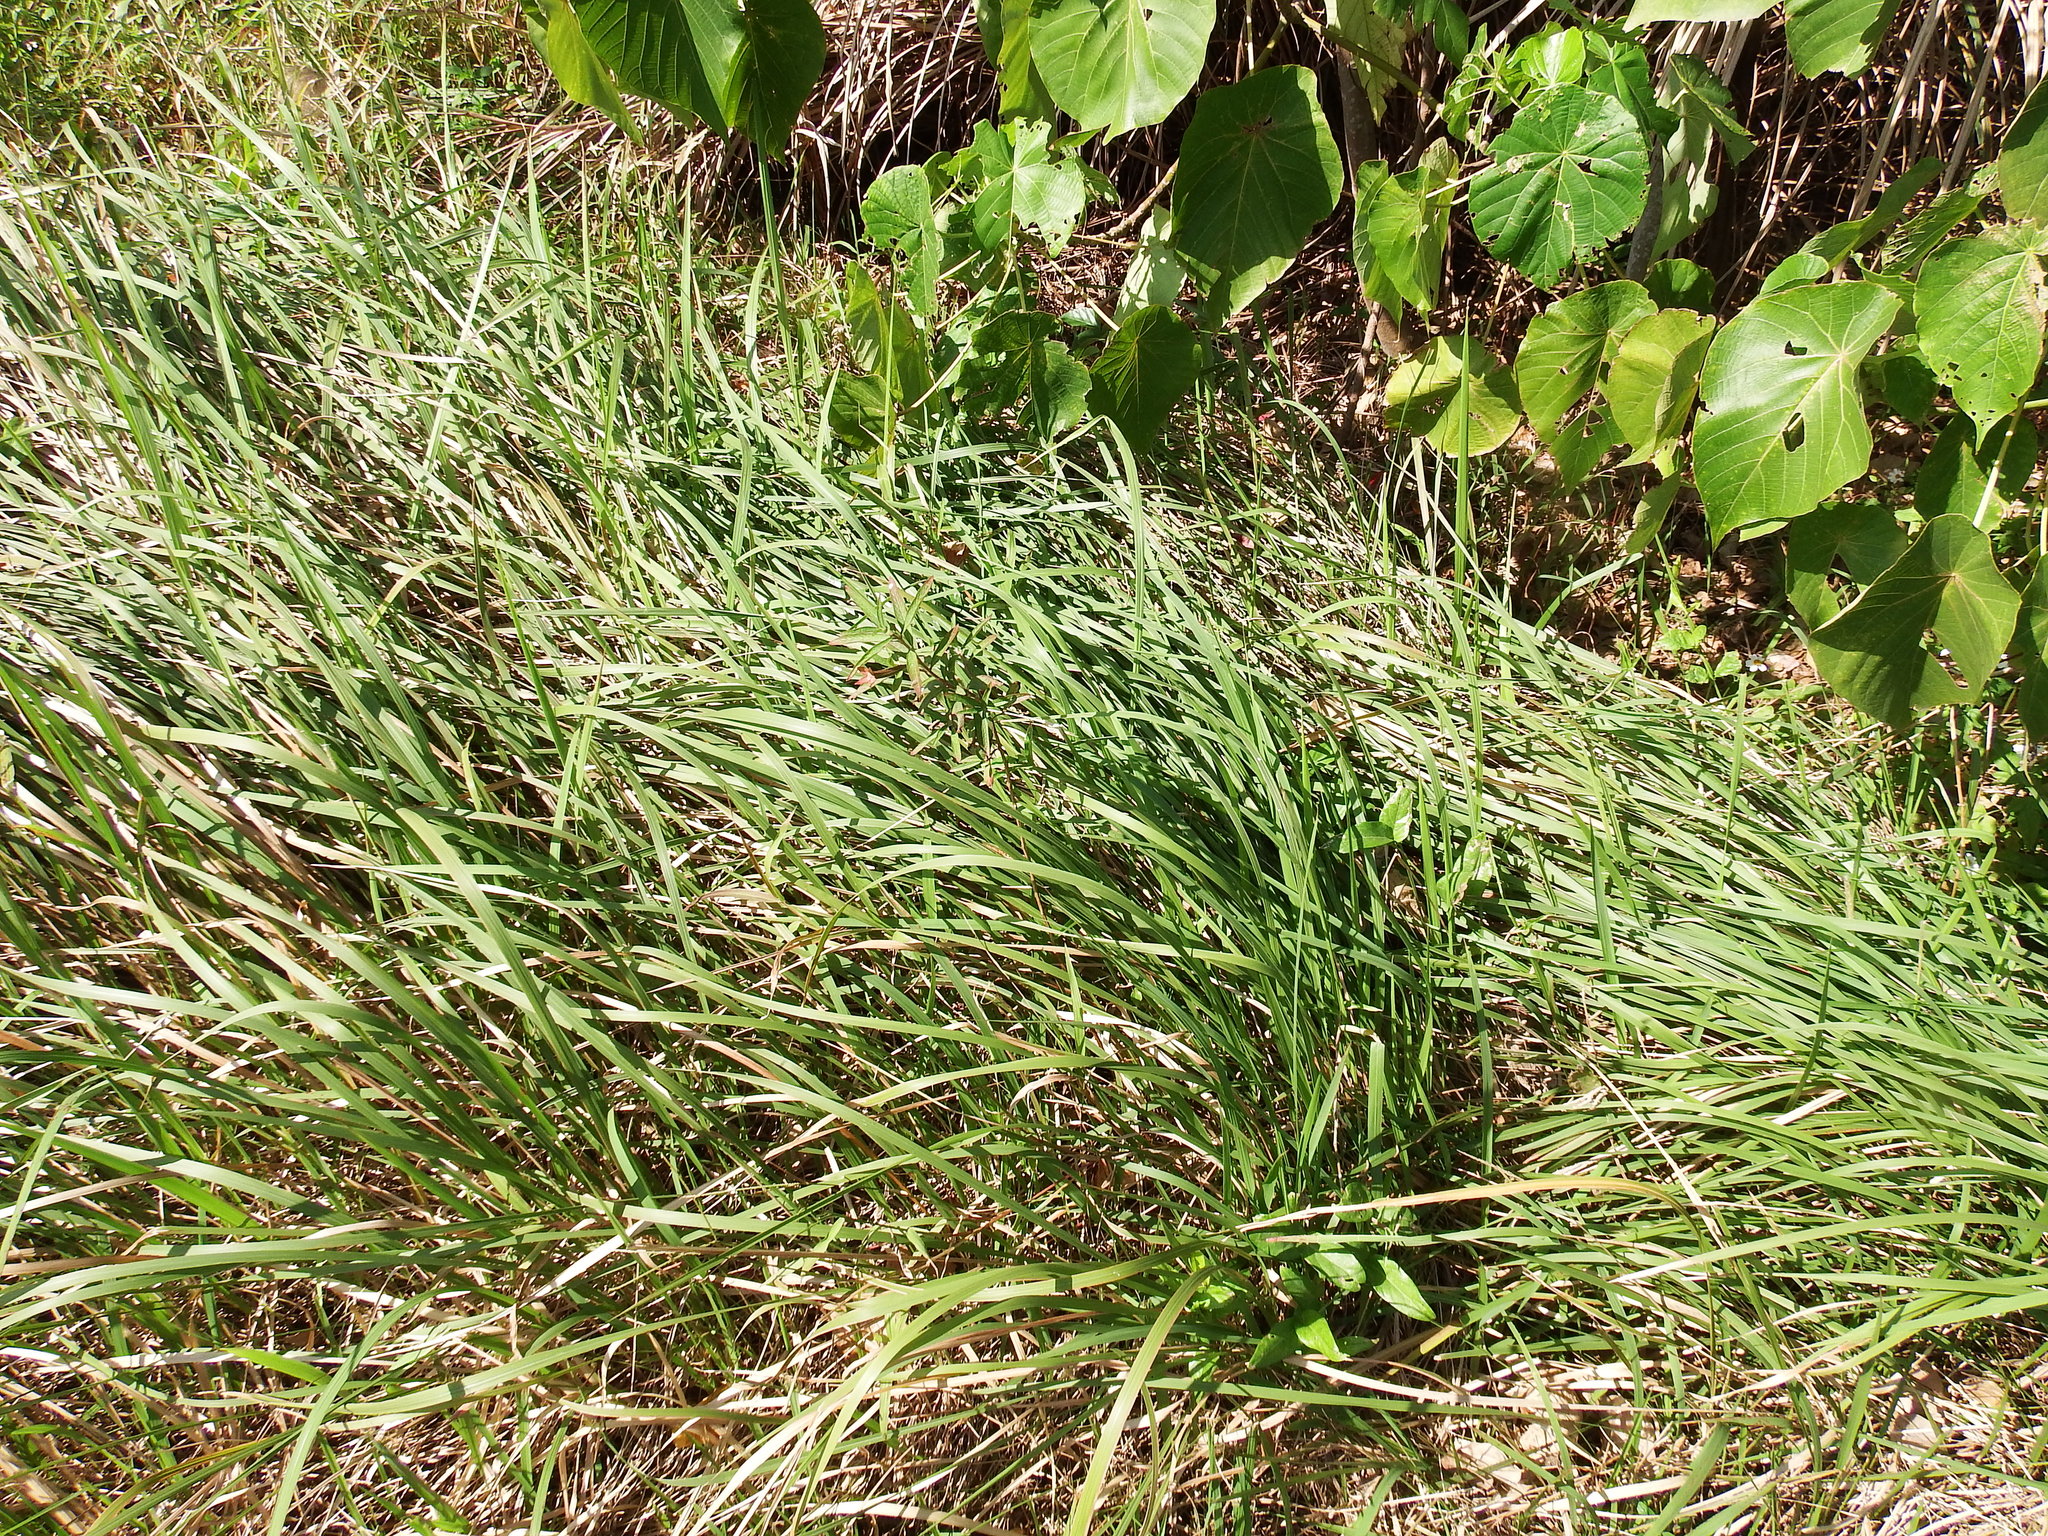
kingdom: Plantae
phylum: Tracheophyta
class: Liliopsida
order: Poales
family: Poaceae
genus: Imperata
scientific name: Imperata cylindrica
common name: Cogongrass
